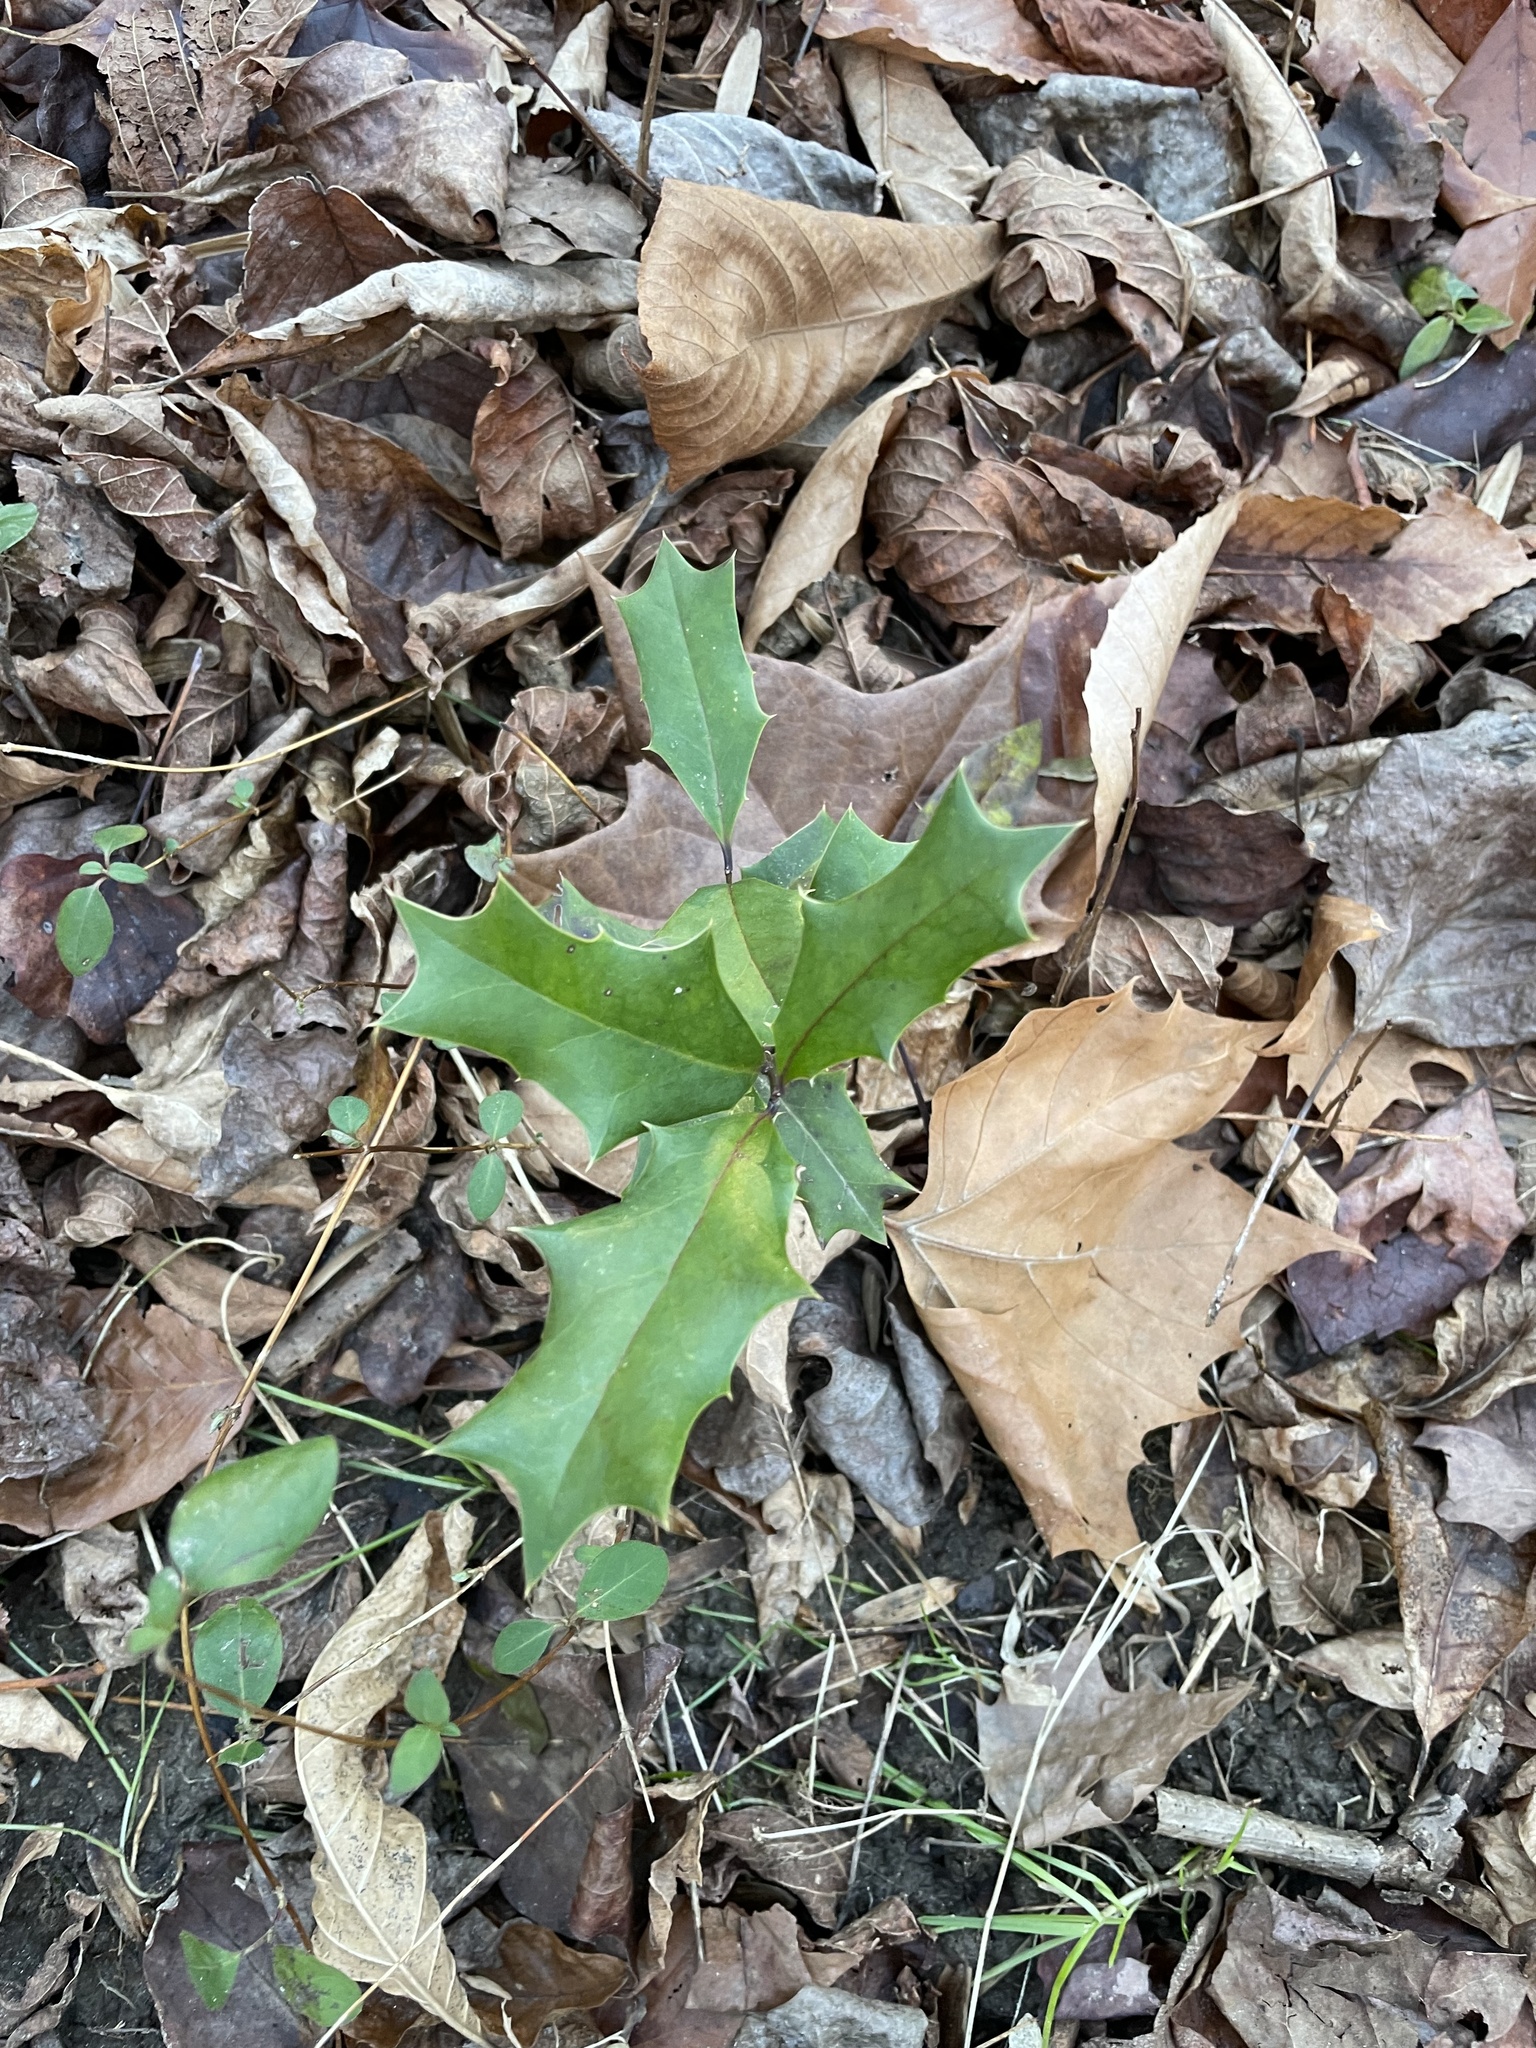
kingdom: Plantae
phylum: Tracheophyta
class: Magnoliopsida
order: Aquifoliales
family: Aquifoliaceae
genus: Ilex
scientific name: Ilex cornuta
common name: Chinese holly
